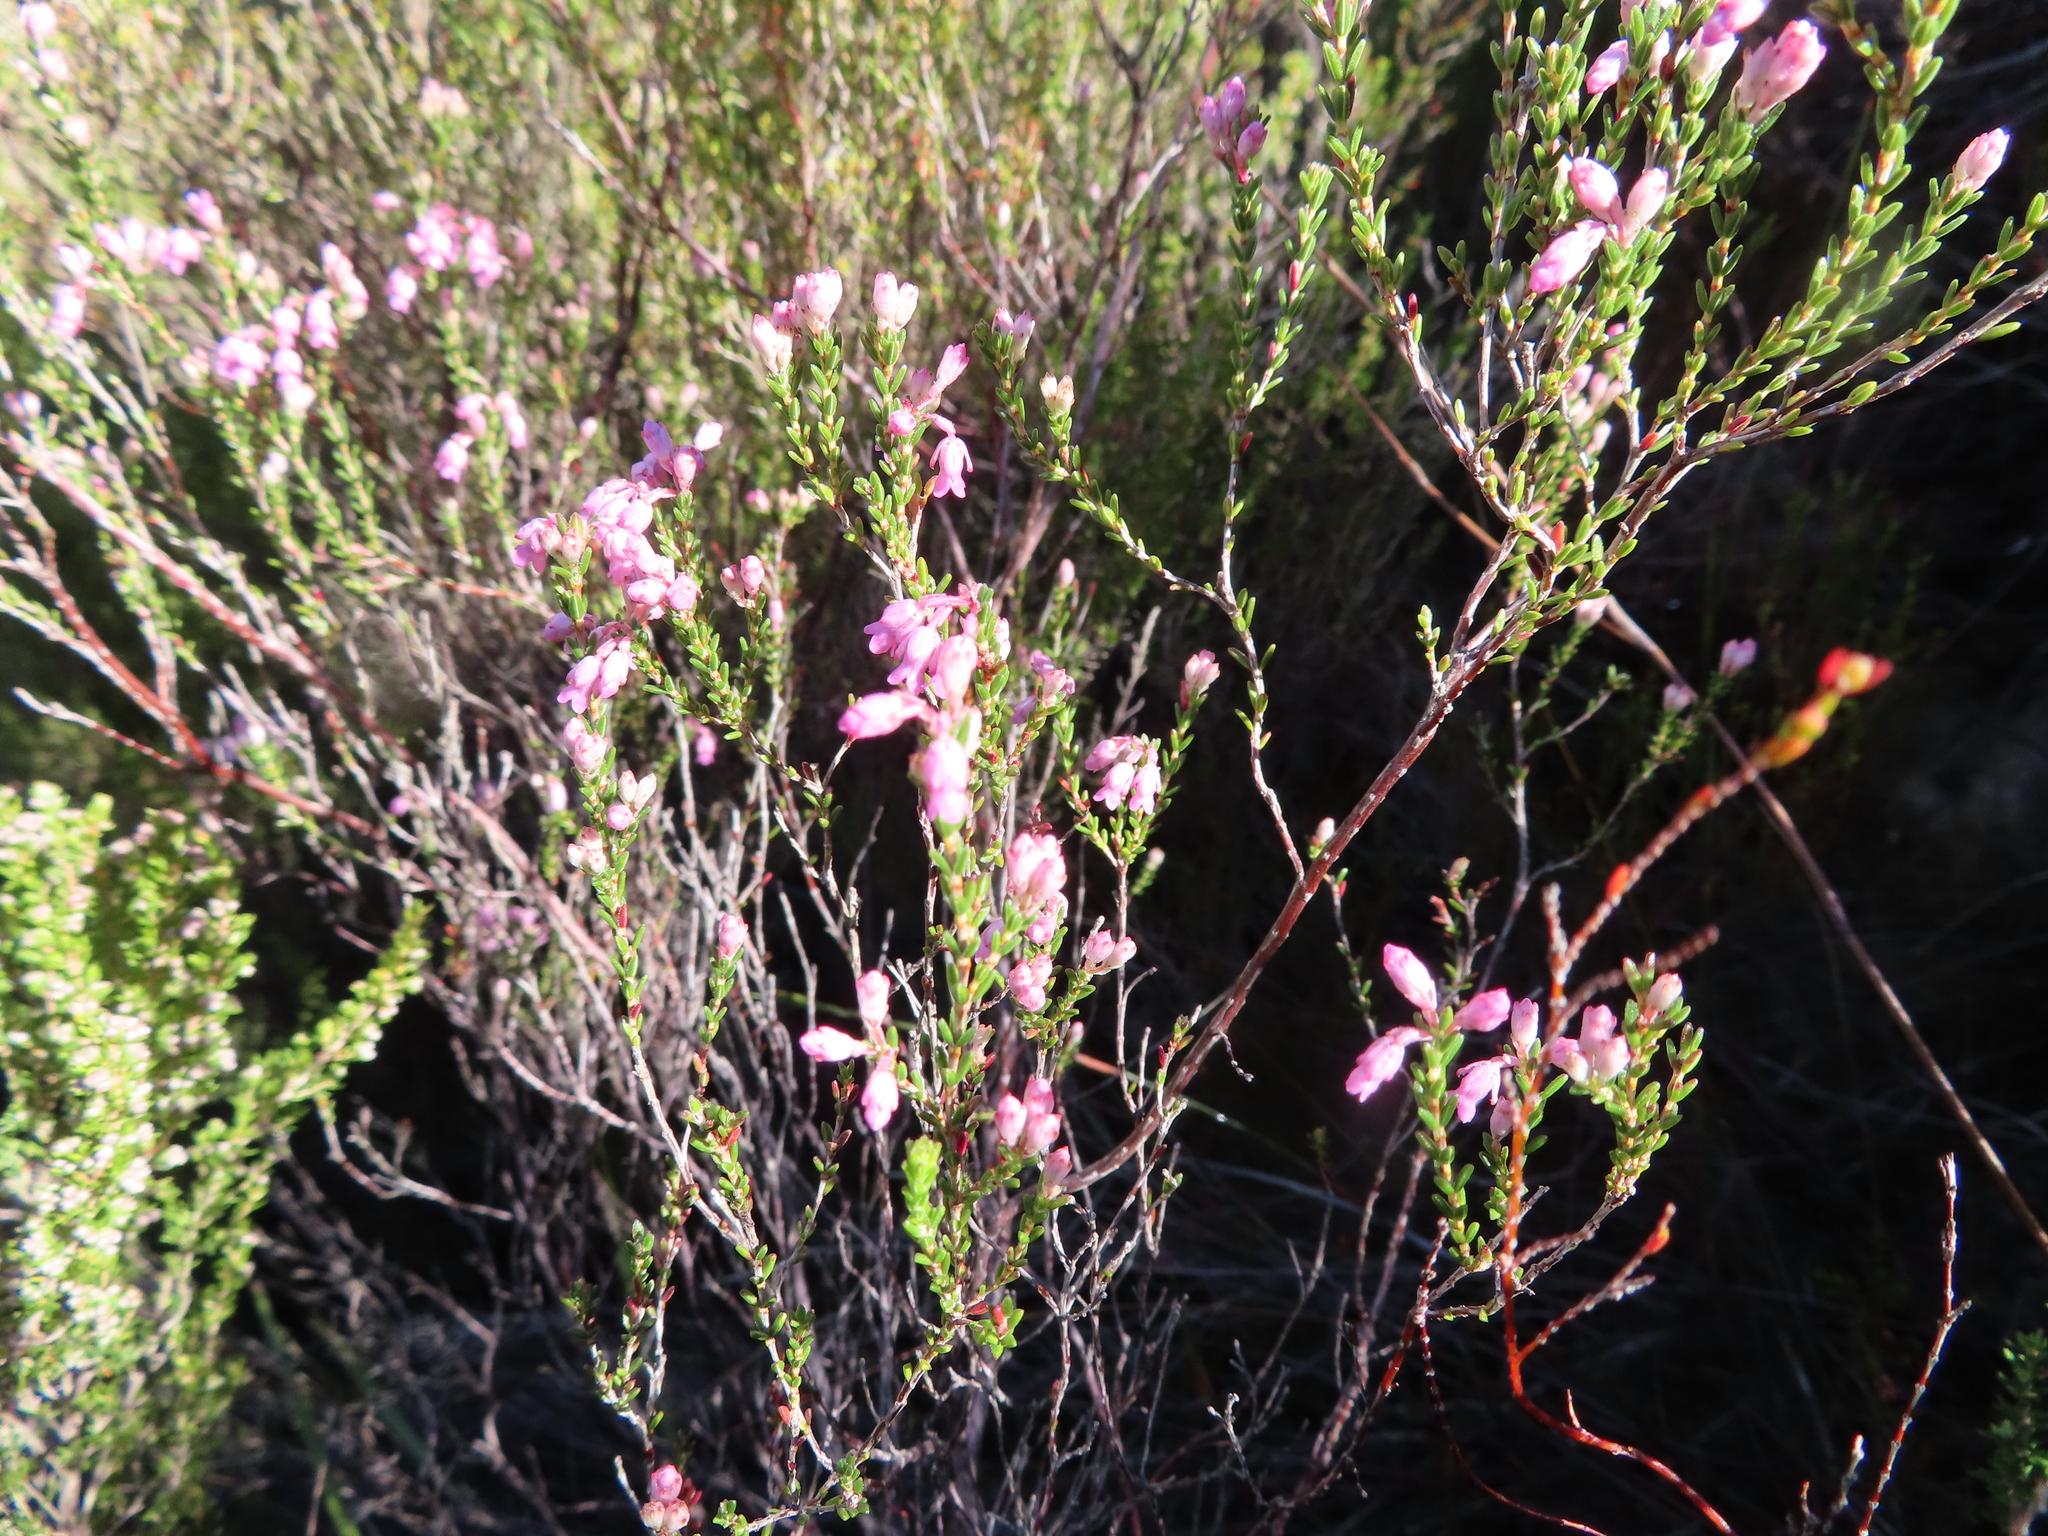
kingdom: Plantae
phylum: Tracheophyta
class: Magnoliopsida
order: Ericales
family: Ericaceae
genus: Erica
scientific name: Erica brevifolia
